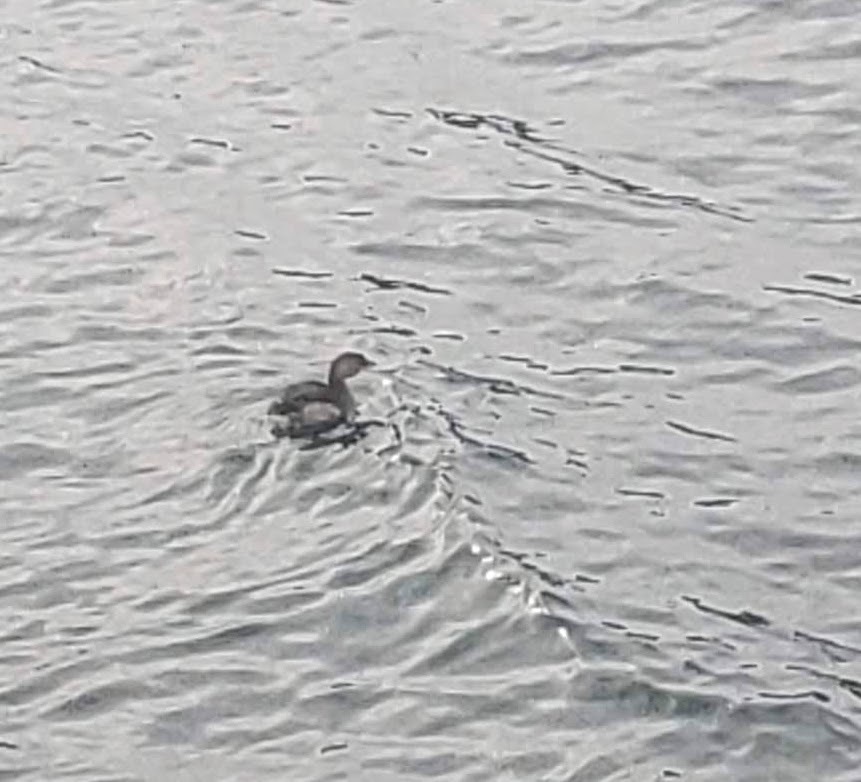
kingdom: Animalia
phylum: Chordata
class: Aves
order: Podicipediformes
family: Podicipedidae
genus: Podilymbus
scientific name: Podilymbus podiceps
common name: Pied-billed grebe
